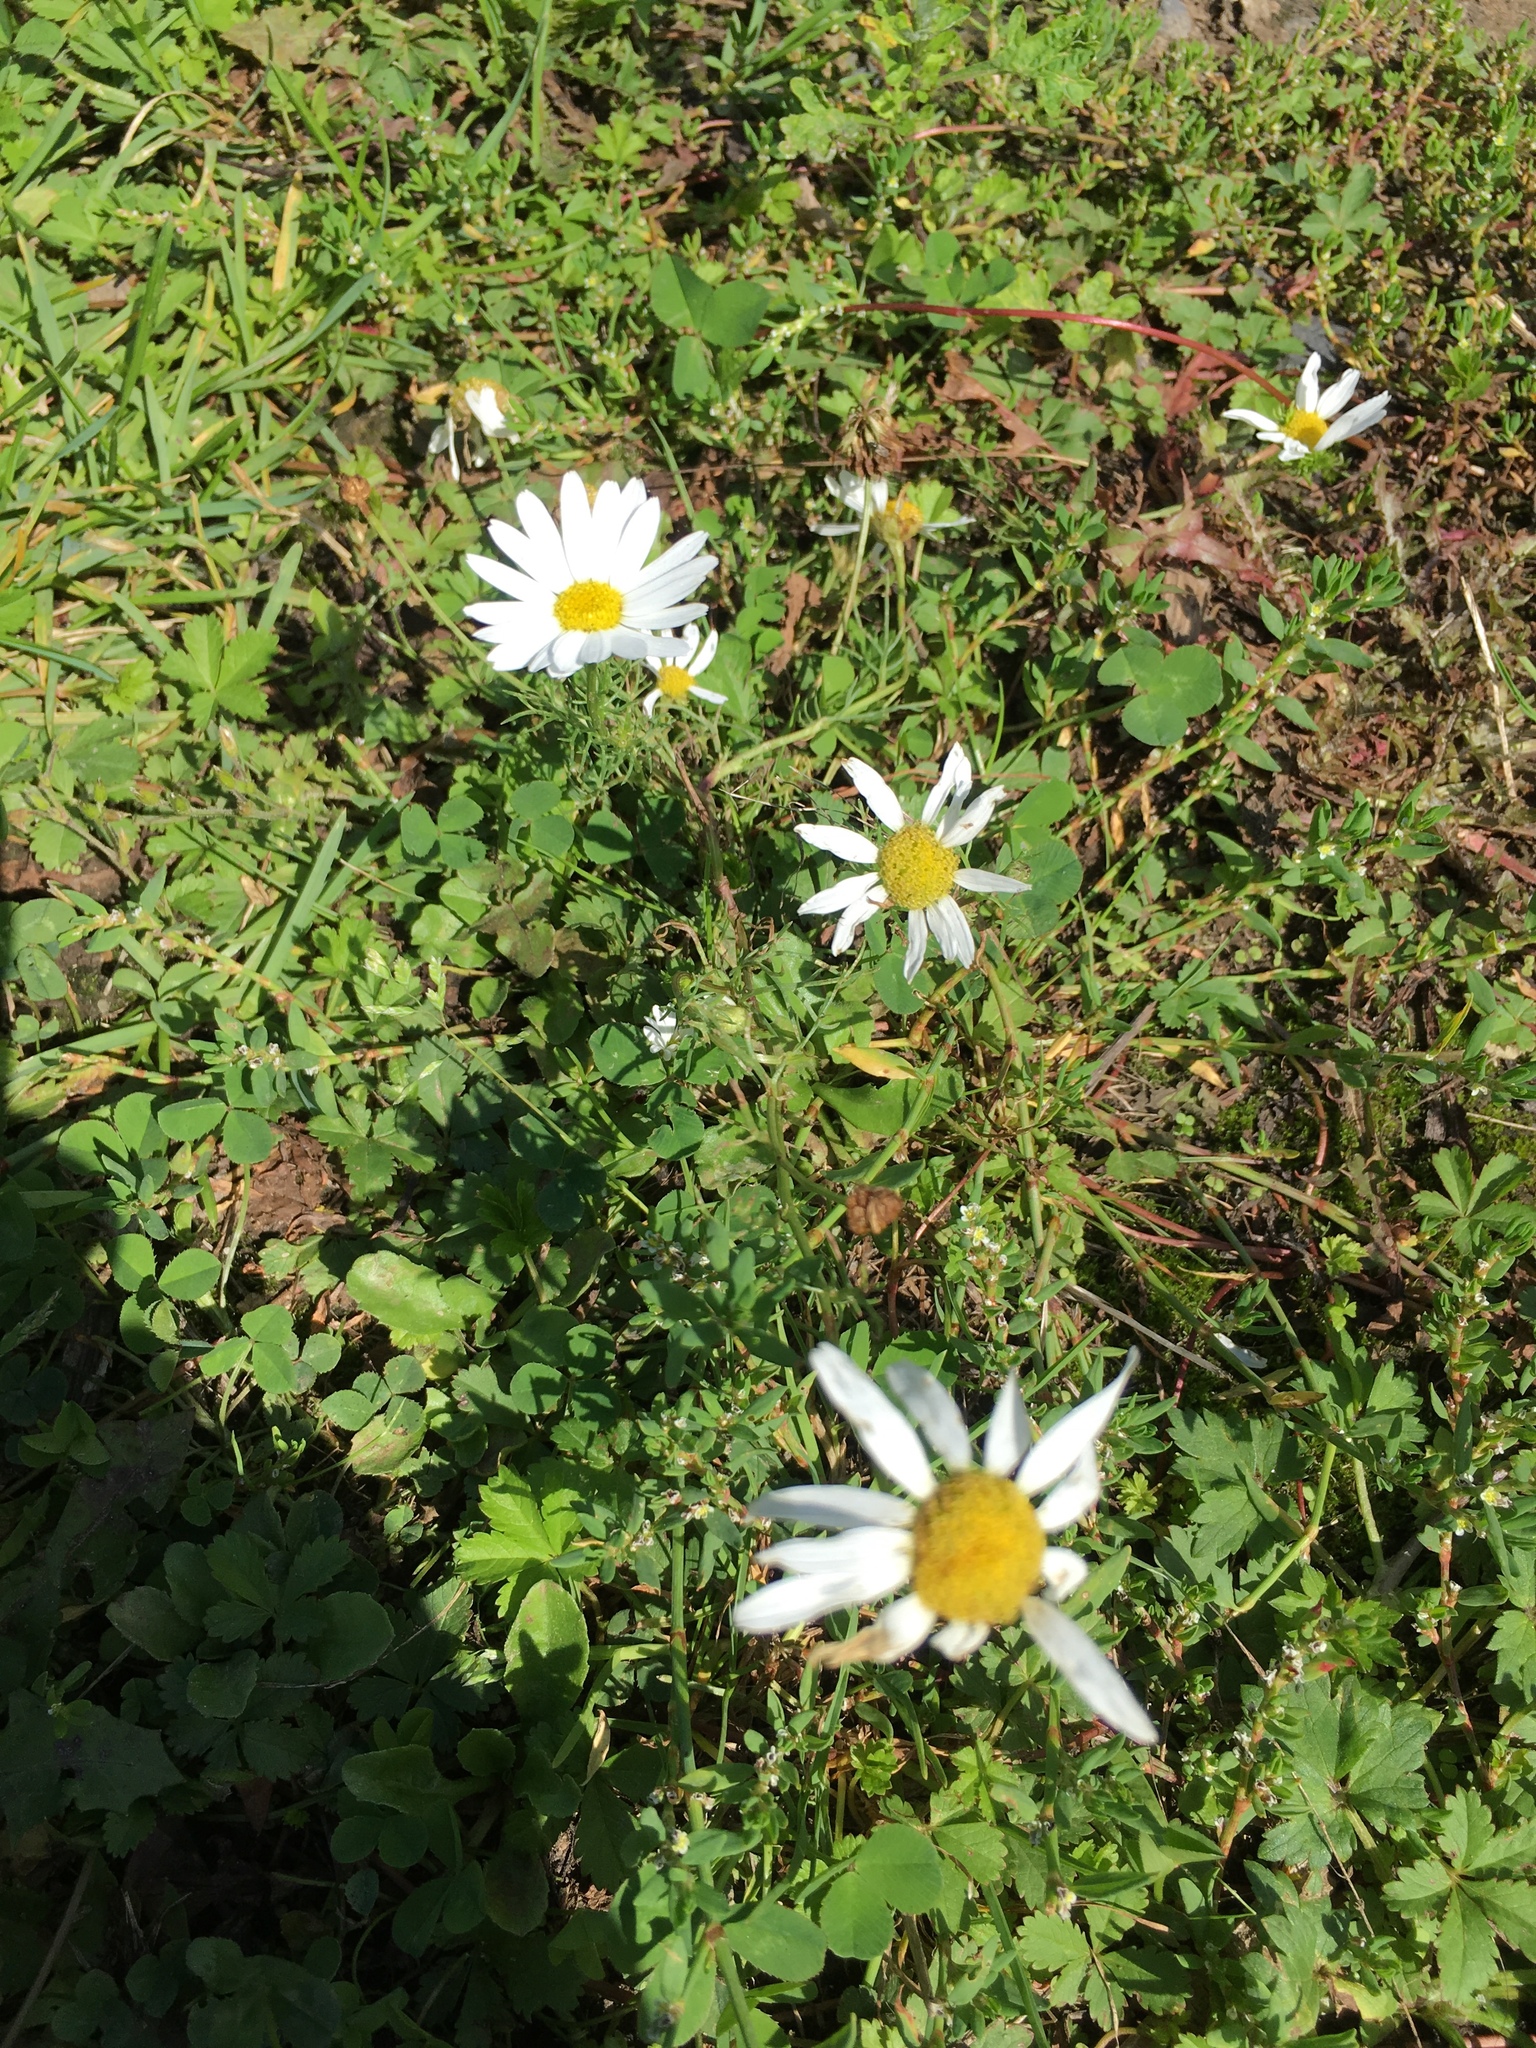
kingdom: Plantae
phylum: Tracheophyta
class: Magnoliopsida
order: Asterales
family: Asteraceae
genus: Tripleurospermum
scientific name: Tripleurospermum inodorum
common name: Scentless mayweed
